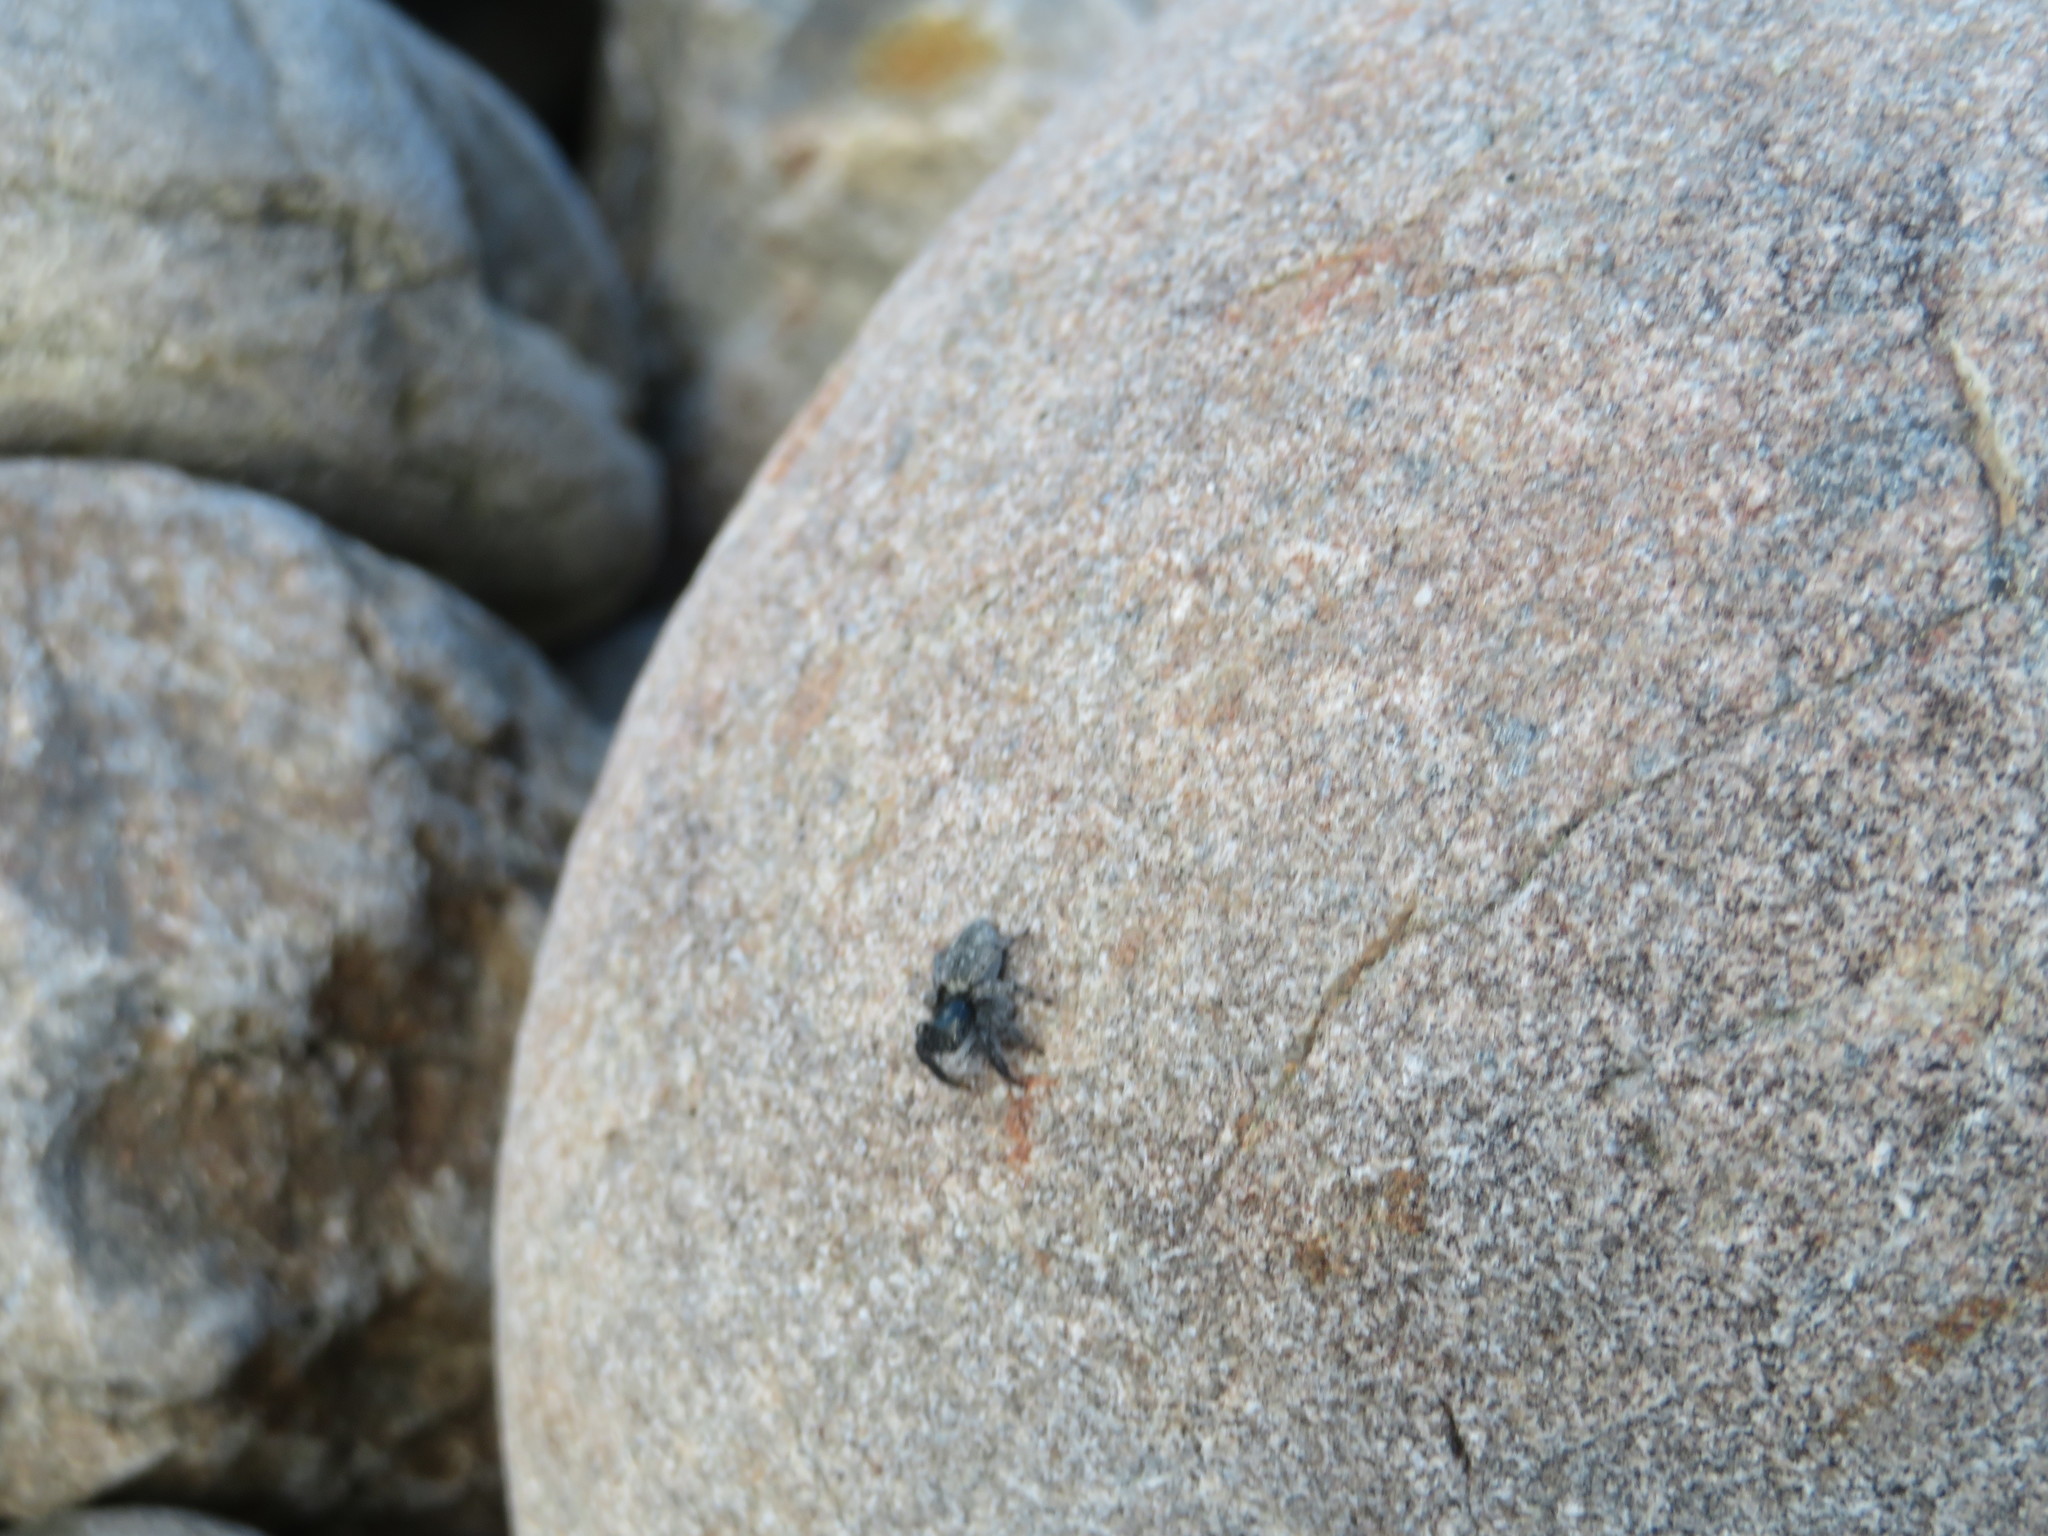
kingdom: Animalia
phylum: Arthropoda
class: Arachnida
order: Araneae
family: Salticidae
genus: Marpissa
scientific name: Marpissa marina
